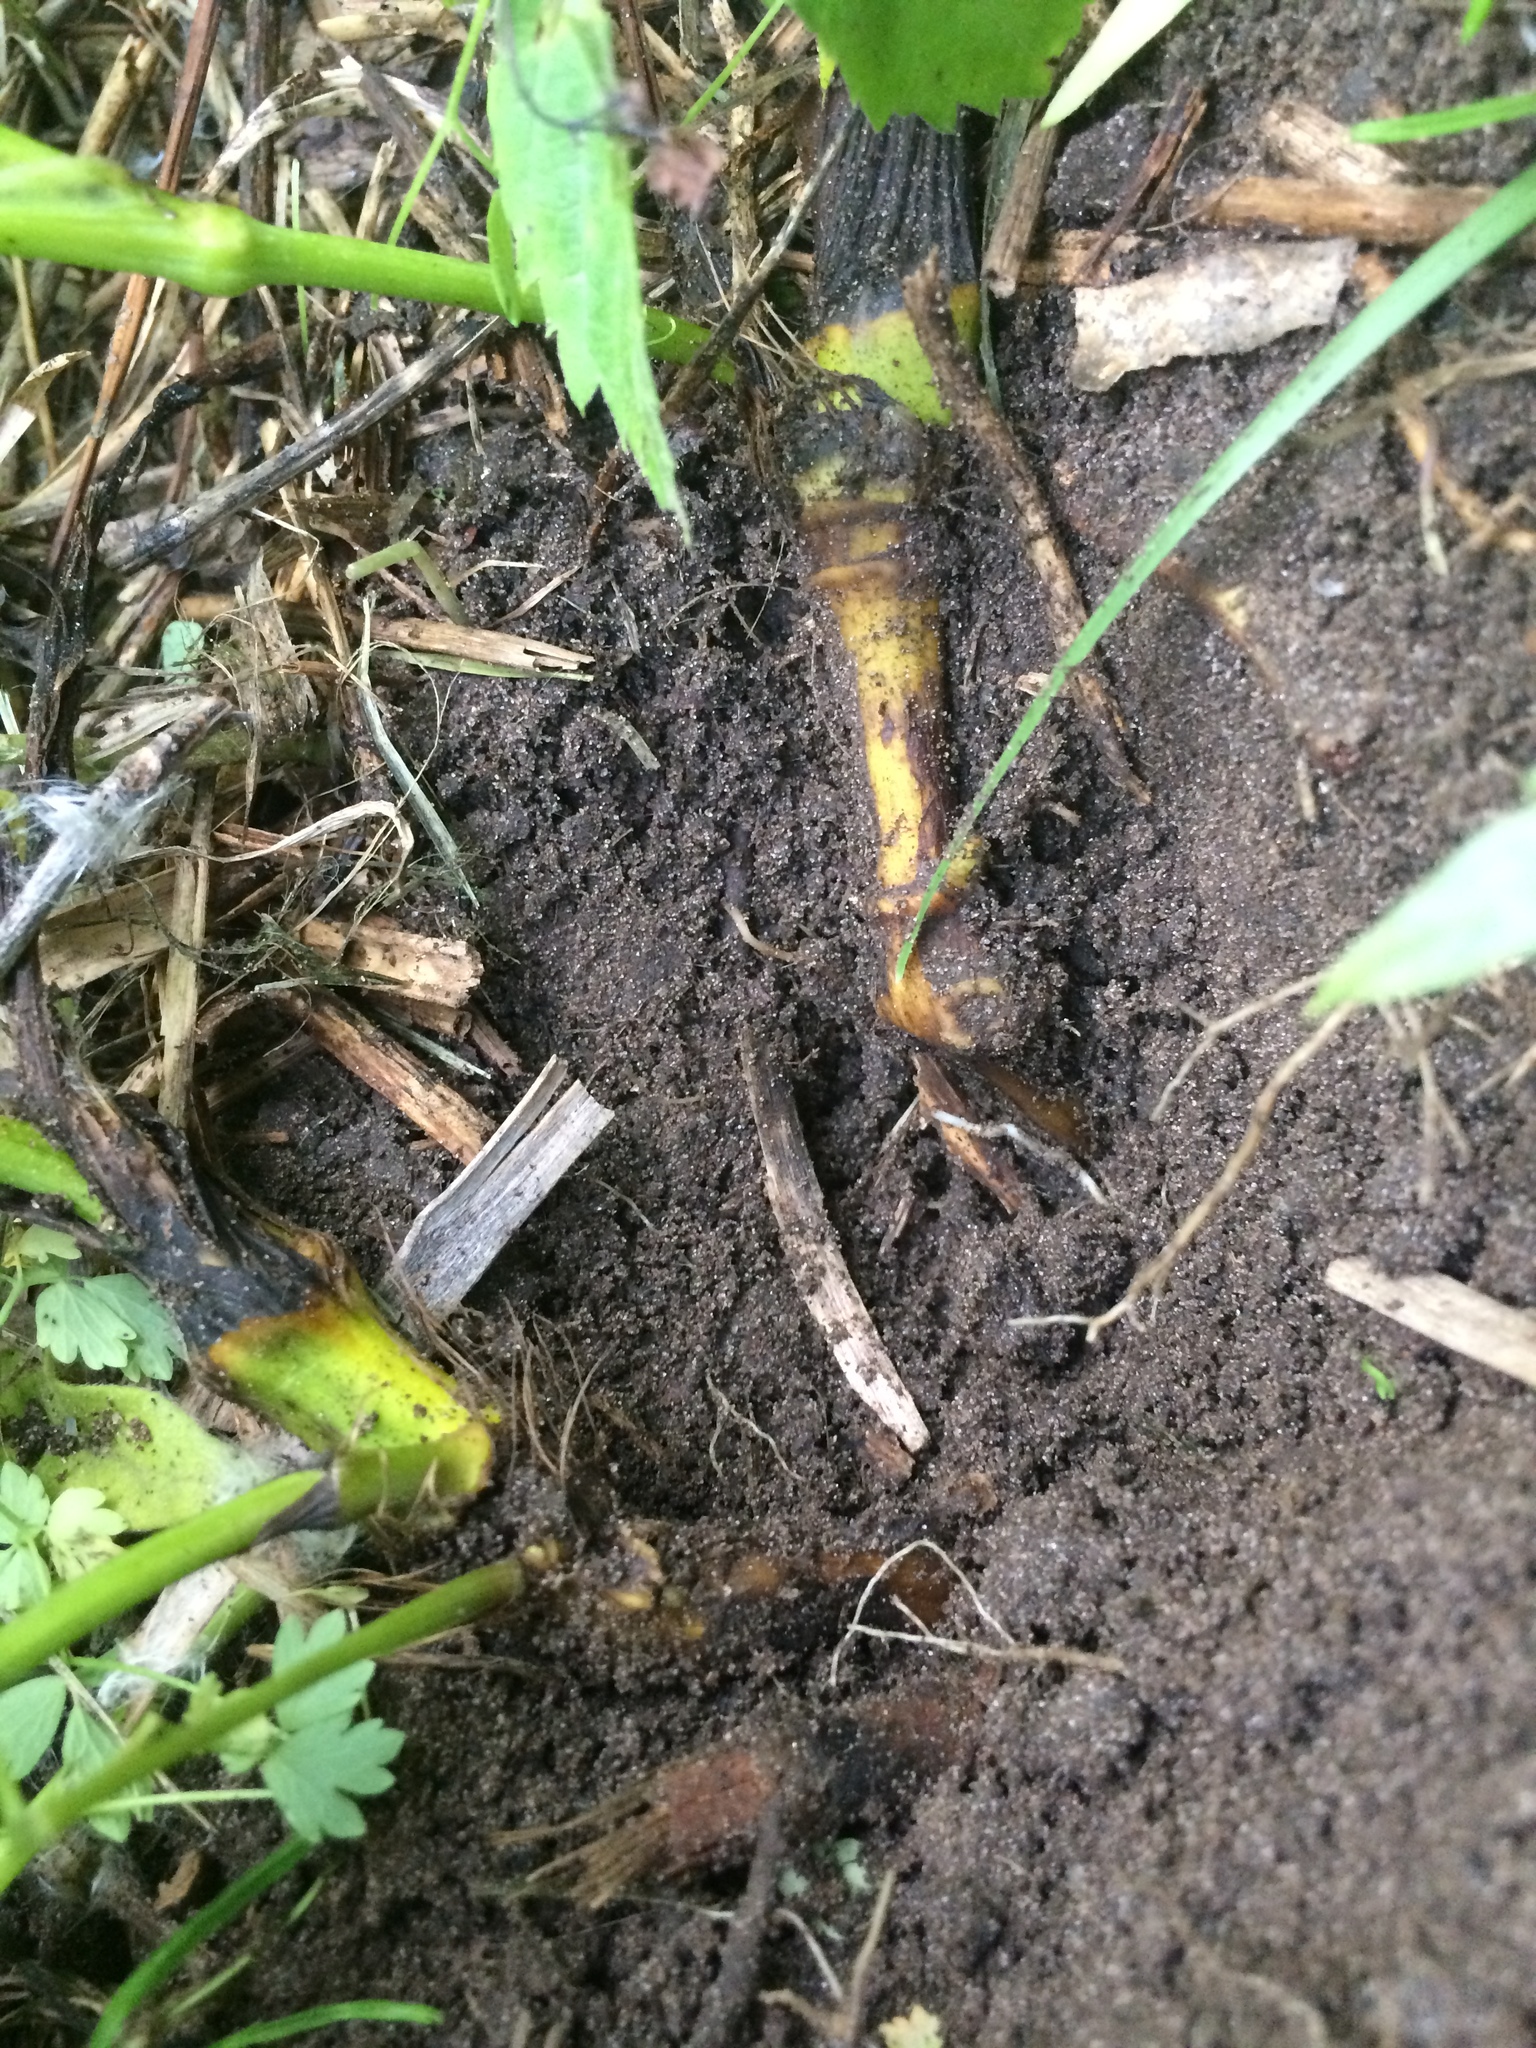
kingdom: Plantae
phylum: Tracheophyta
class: Magnoliopsida
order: Ranunculales
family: Ranunculaceae
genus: Thalictrum
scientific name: Thalictrum venulosum
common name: Early meadow-rue
